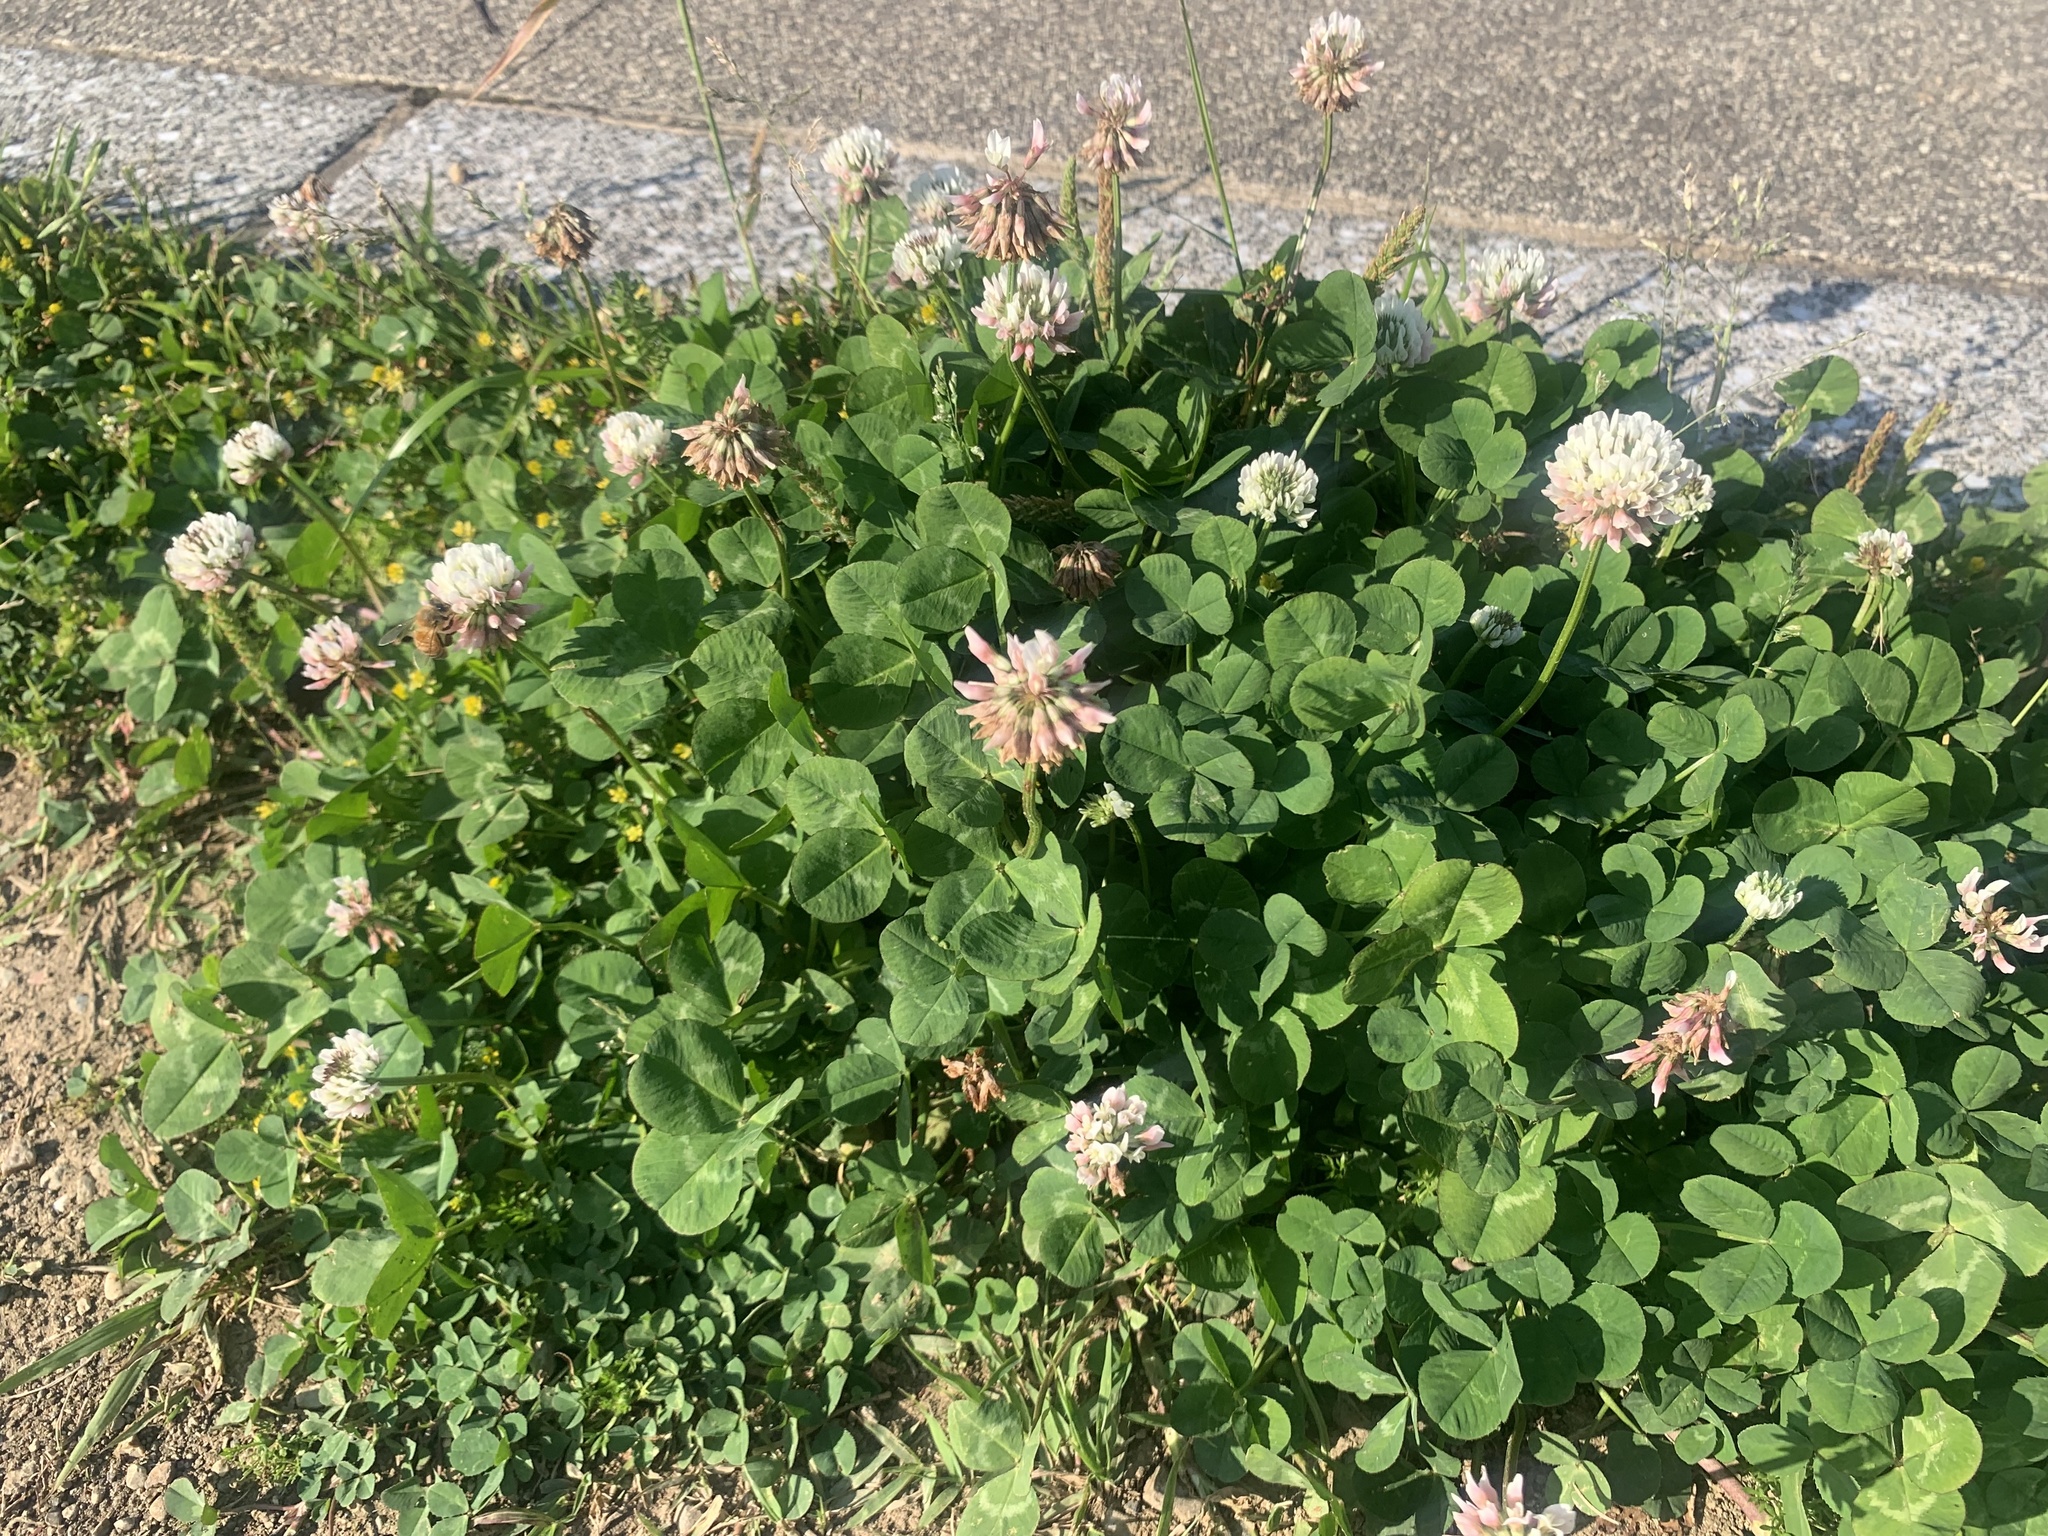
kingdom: Plantae
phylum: Tracheophyta
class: Magnoliopsida
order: Fabales
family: Fabaceae
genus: Trifolium
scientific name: Trifolium repens
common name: White clover
